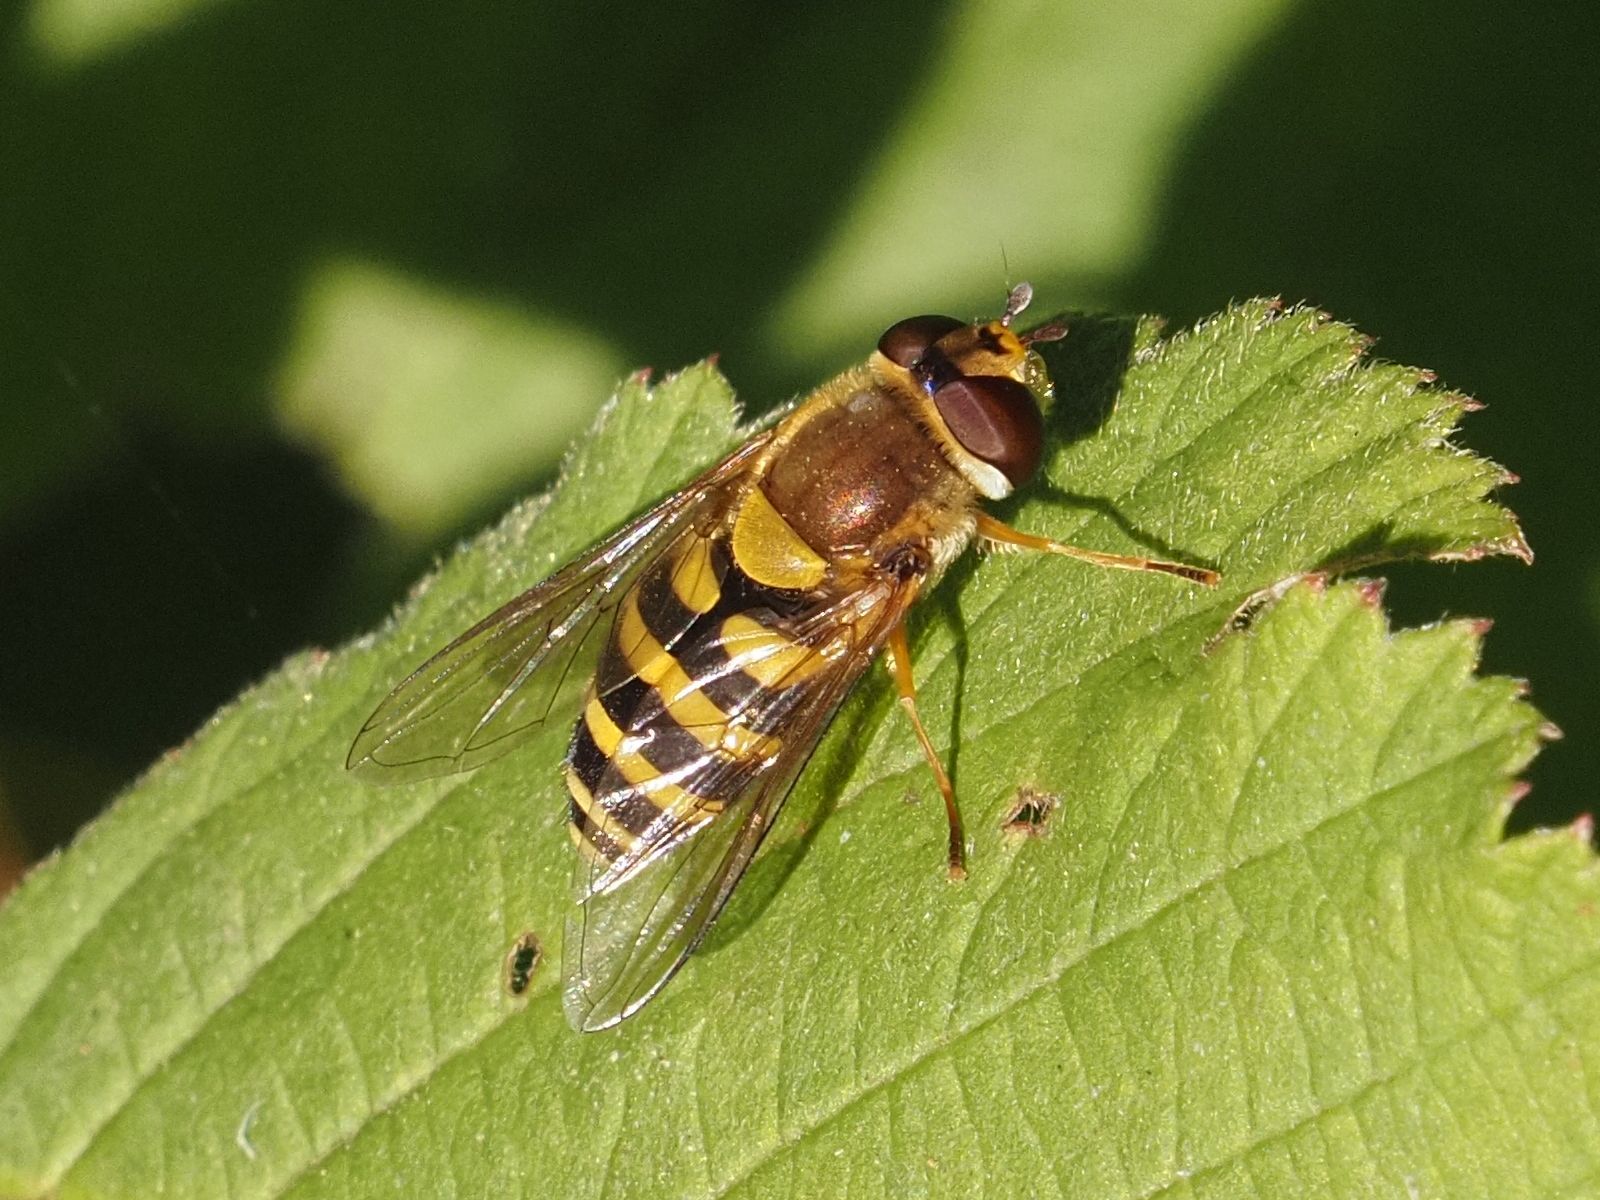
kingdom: Animalia
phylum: Arthropoda
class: Insecta
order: Diptera
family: Syrphidae
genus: Syrphus
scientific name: Syrphus
